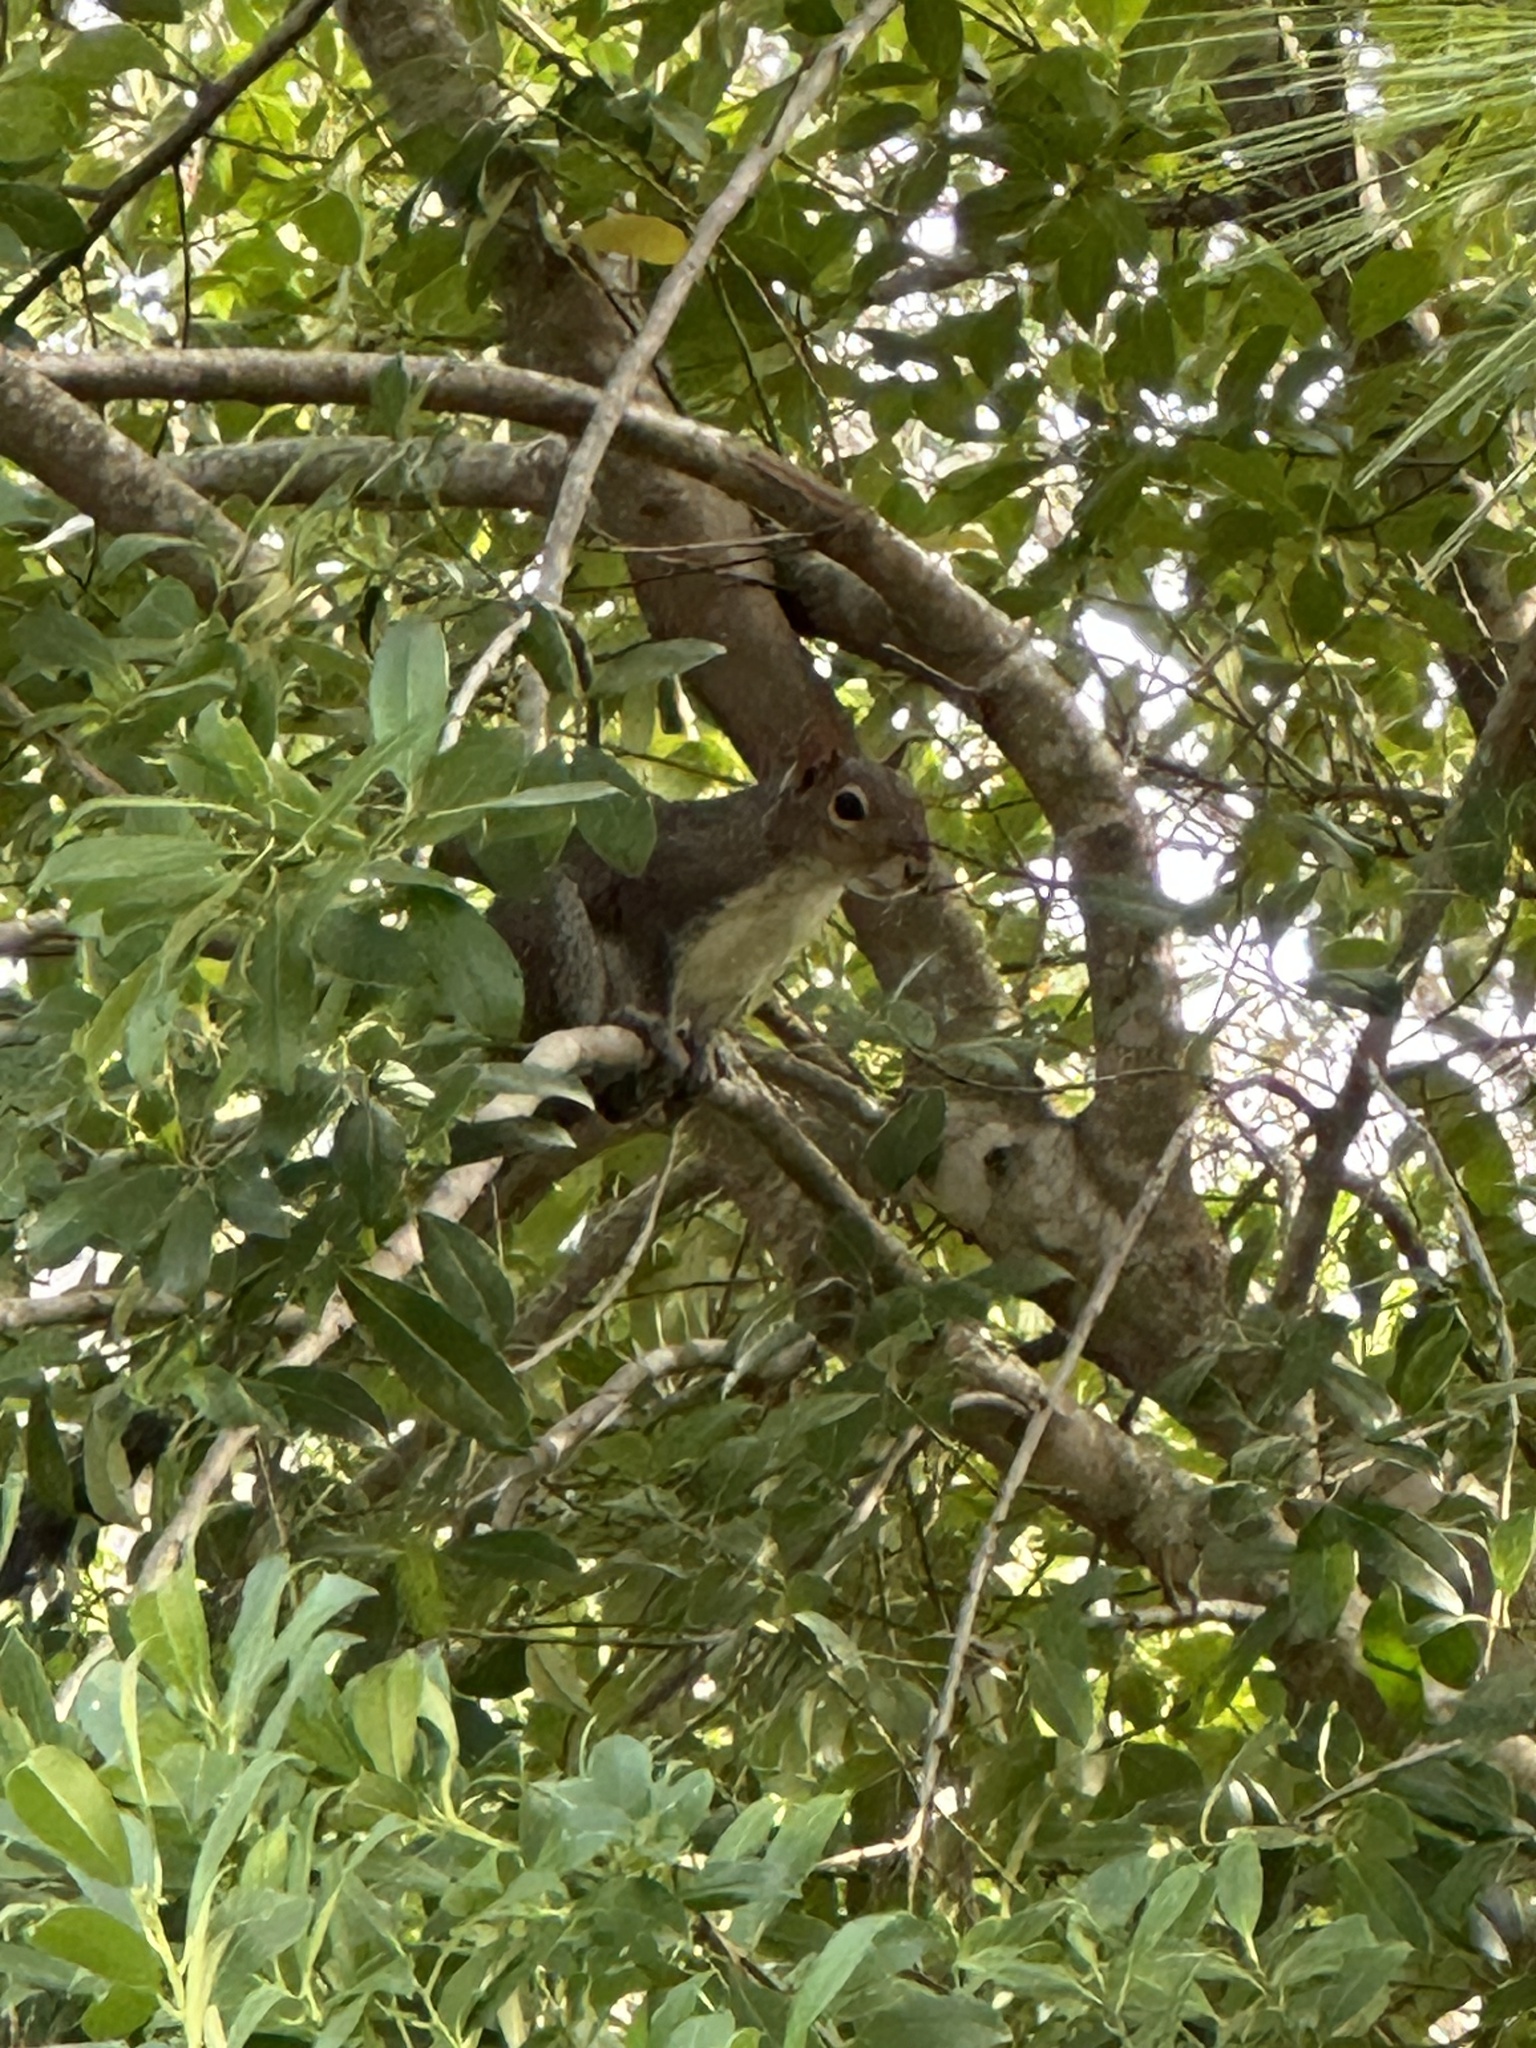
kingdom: Animalia
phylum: Chordata
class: Mammalia
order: Rodentia
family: Sciuridae
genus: Sciurus
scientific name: Sciurus carolinensis
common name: Eastern gray squirrel
